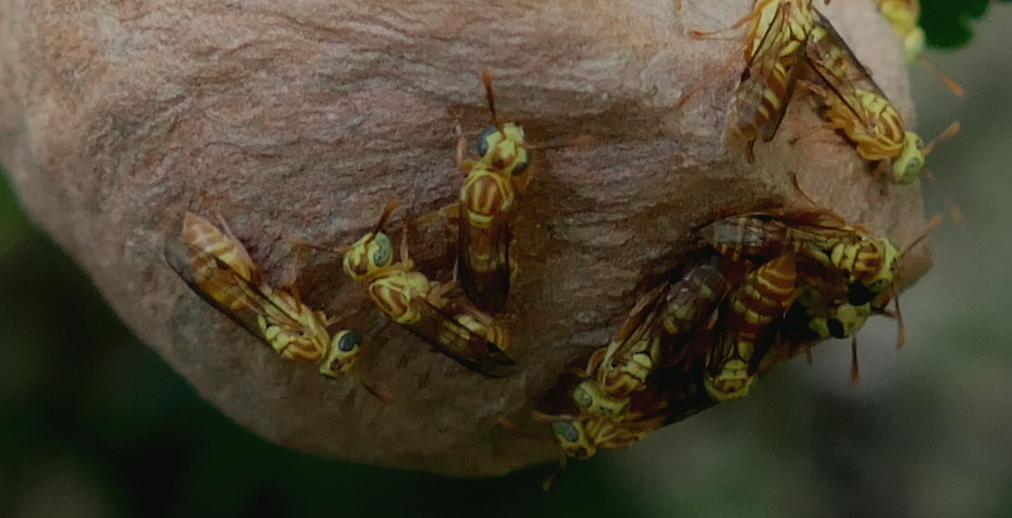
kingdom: Animalia
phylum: Arthropoda
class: Insecta
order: Hymenoptera
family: Vespidae
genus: Protopolybia
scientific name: Protopolybia potiguara
